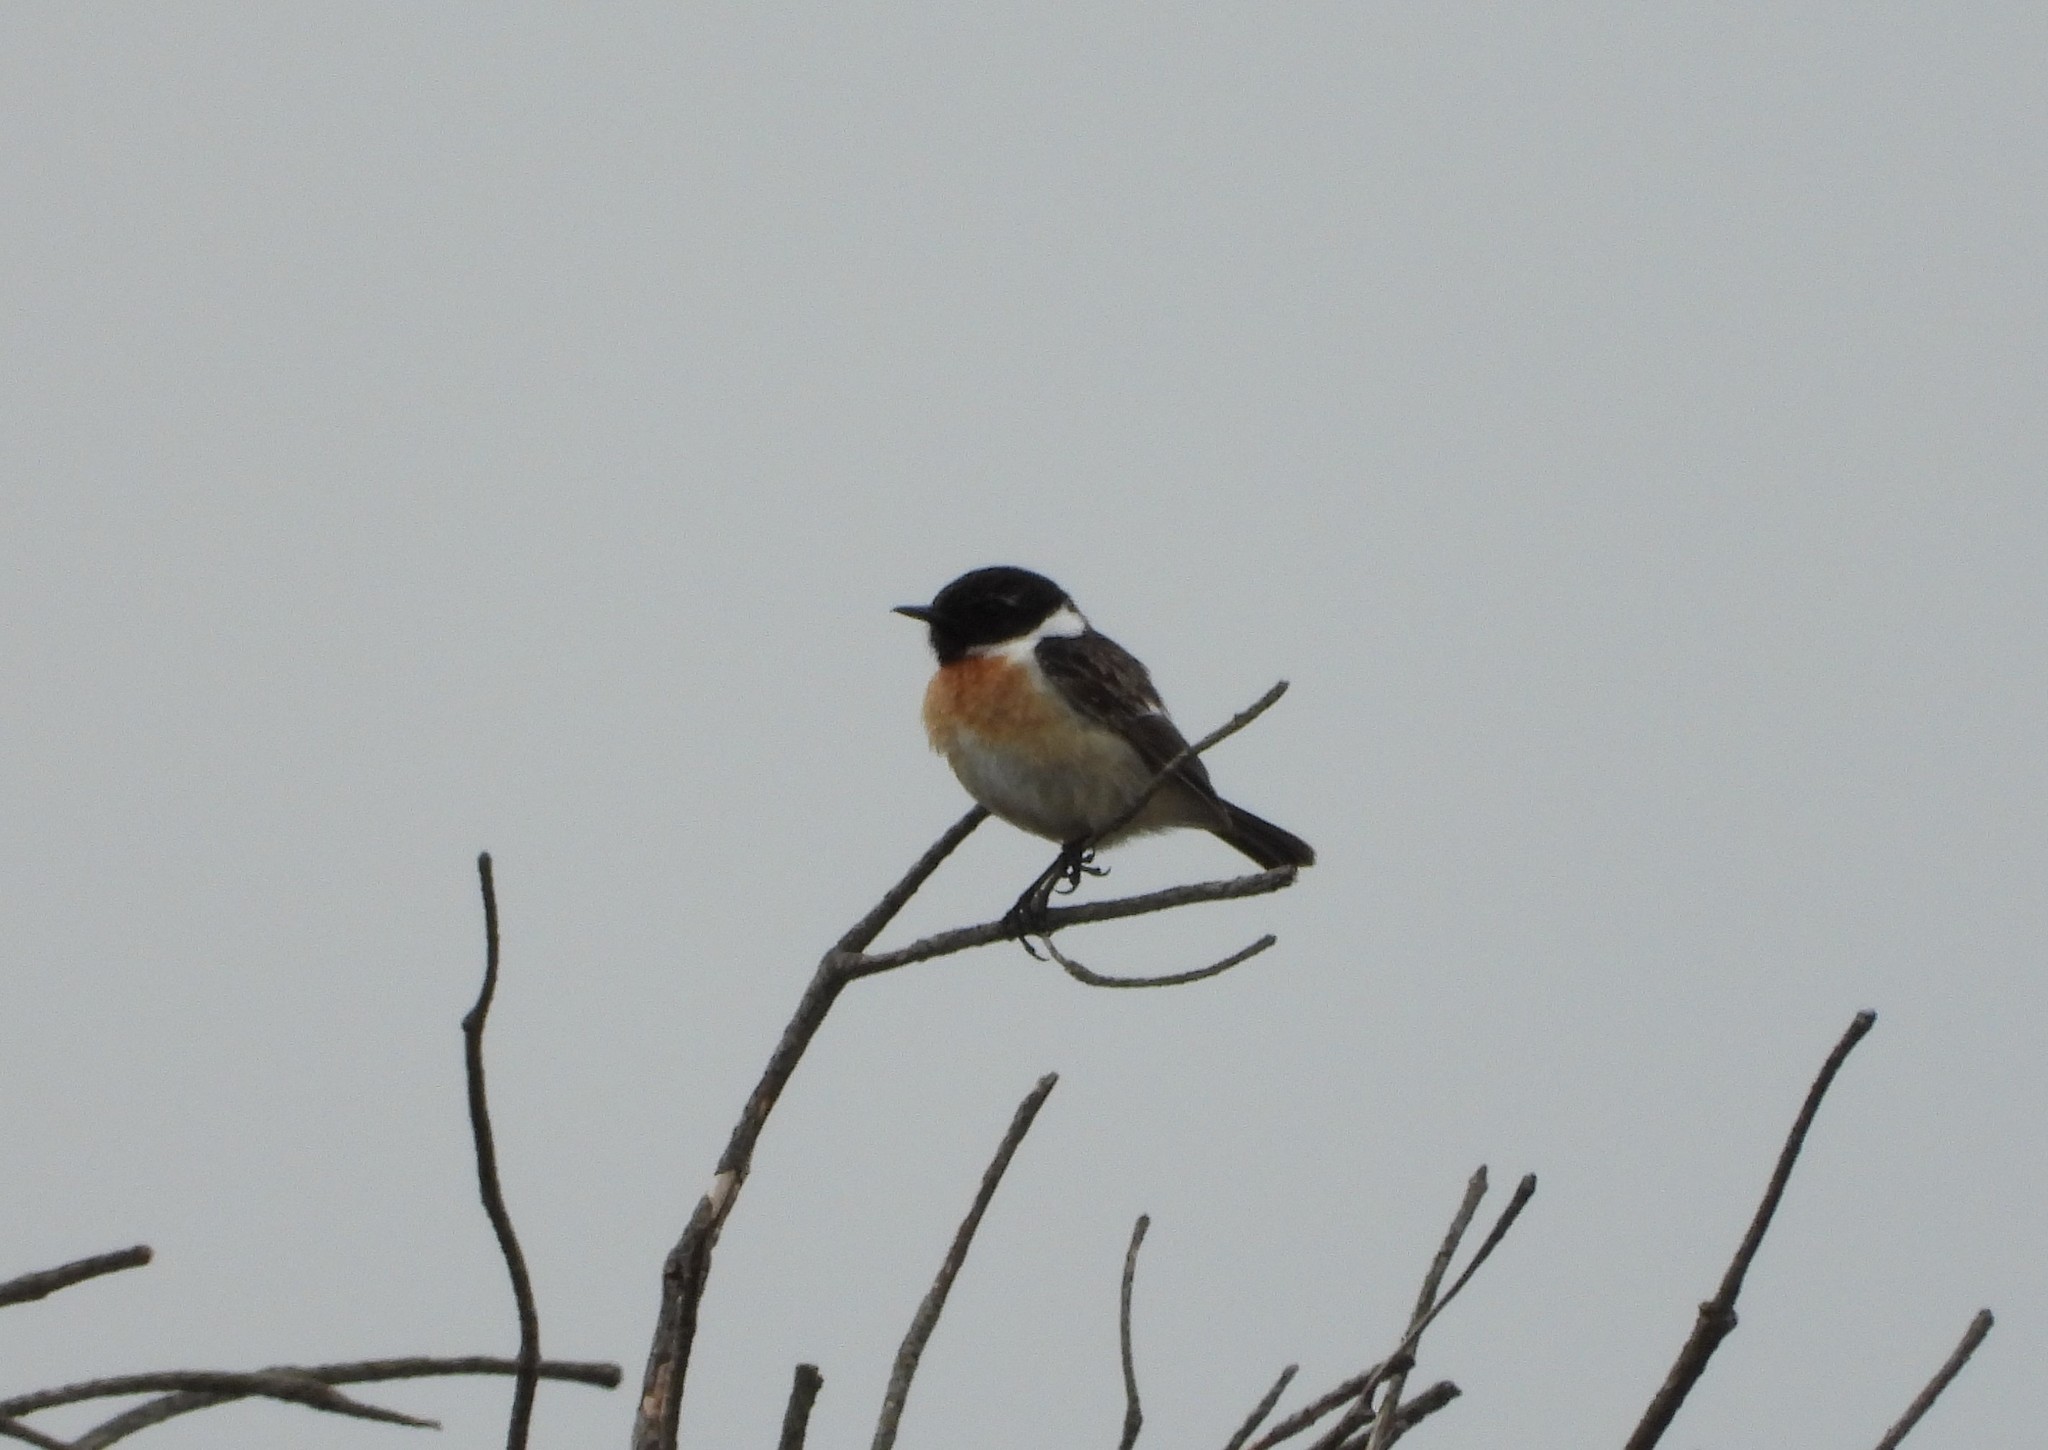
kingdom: Animalia
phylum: Chordata
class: Aves
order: Passeriformes
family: Muscicapidae
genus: Saxicola
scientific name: Saxicola rubicola
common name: European stonechat
